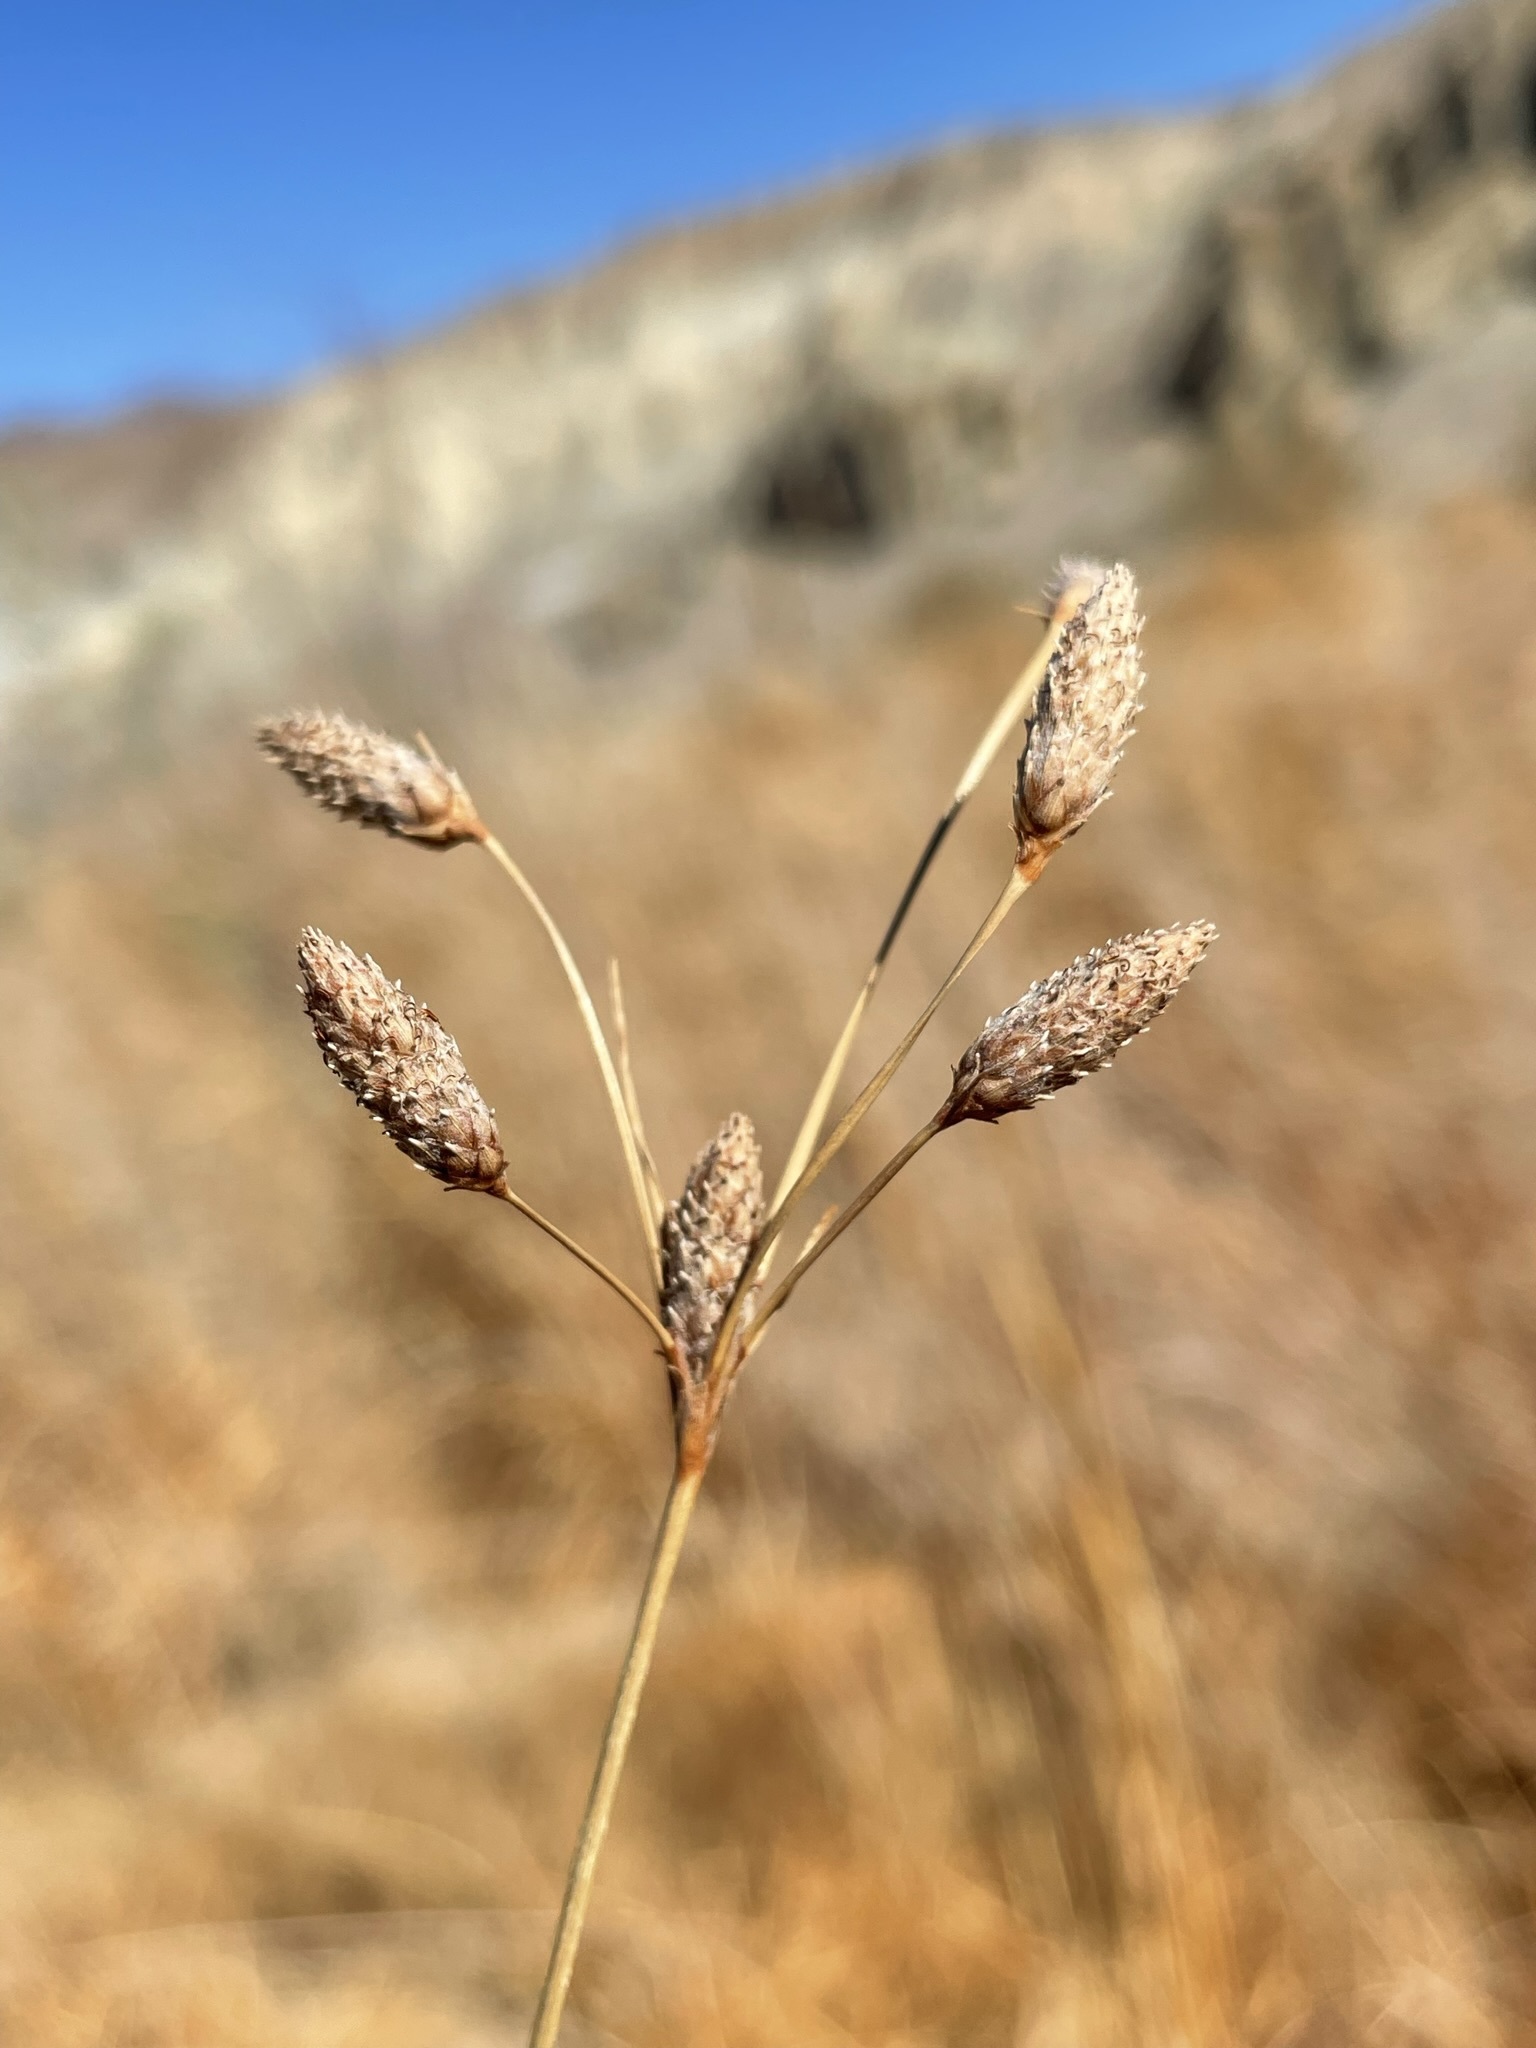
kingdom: Plantae
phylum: Tracheophyta
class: Liliopsida
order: Poales
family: Cyperaceae
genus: Fimbristylis
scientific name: Fimbristylis thermalis
